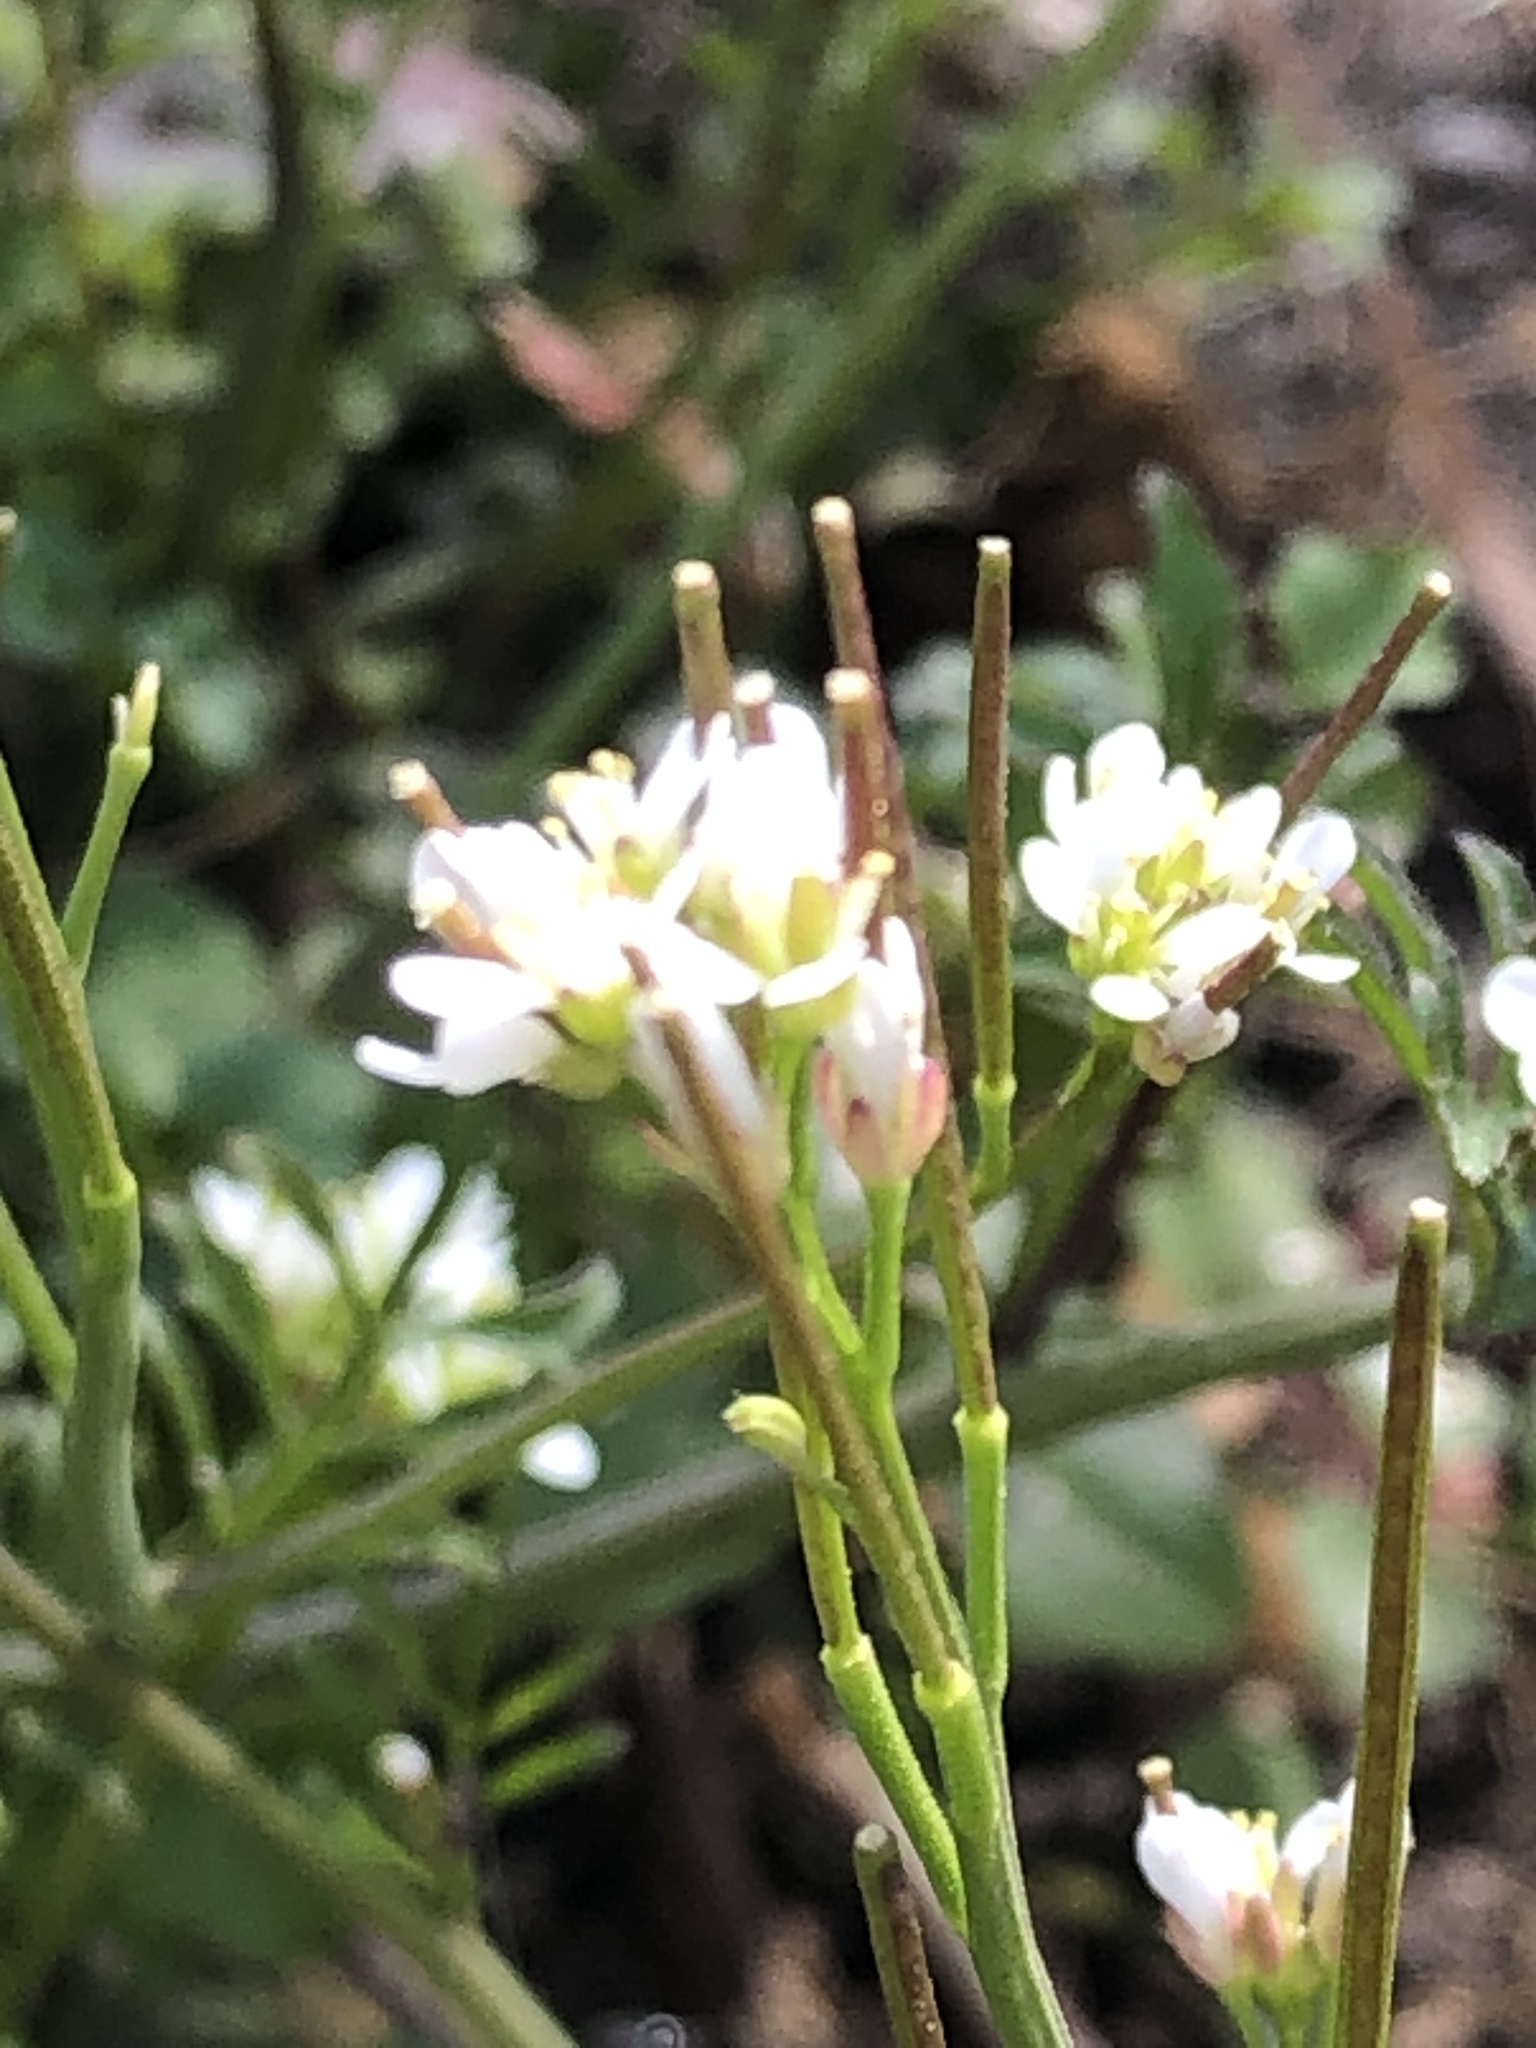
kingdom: Plantae
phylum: Tracheophyta
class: Magnoliopsida
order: Brassicales
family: Brassicaceae
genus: Cardamine
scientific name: Cardamine hirsuta
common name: Hairy bittercress
